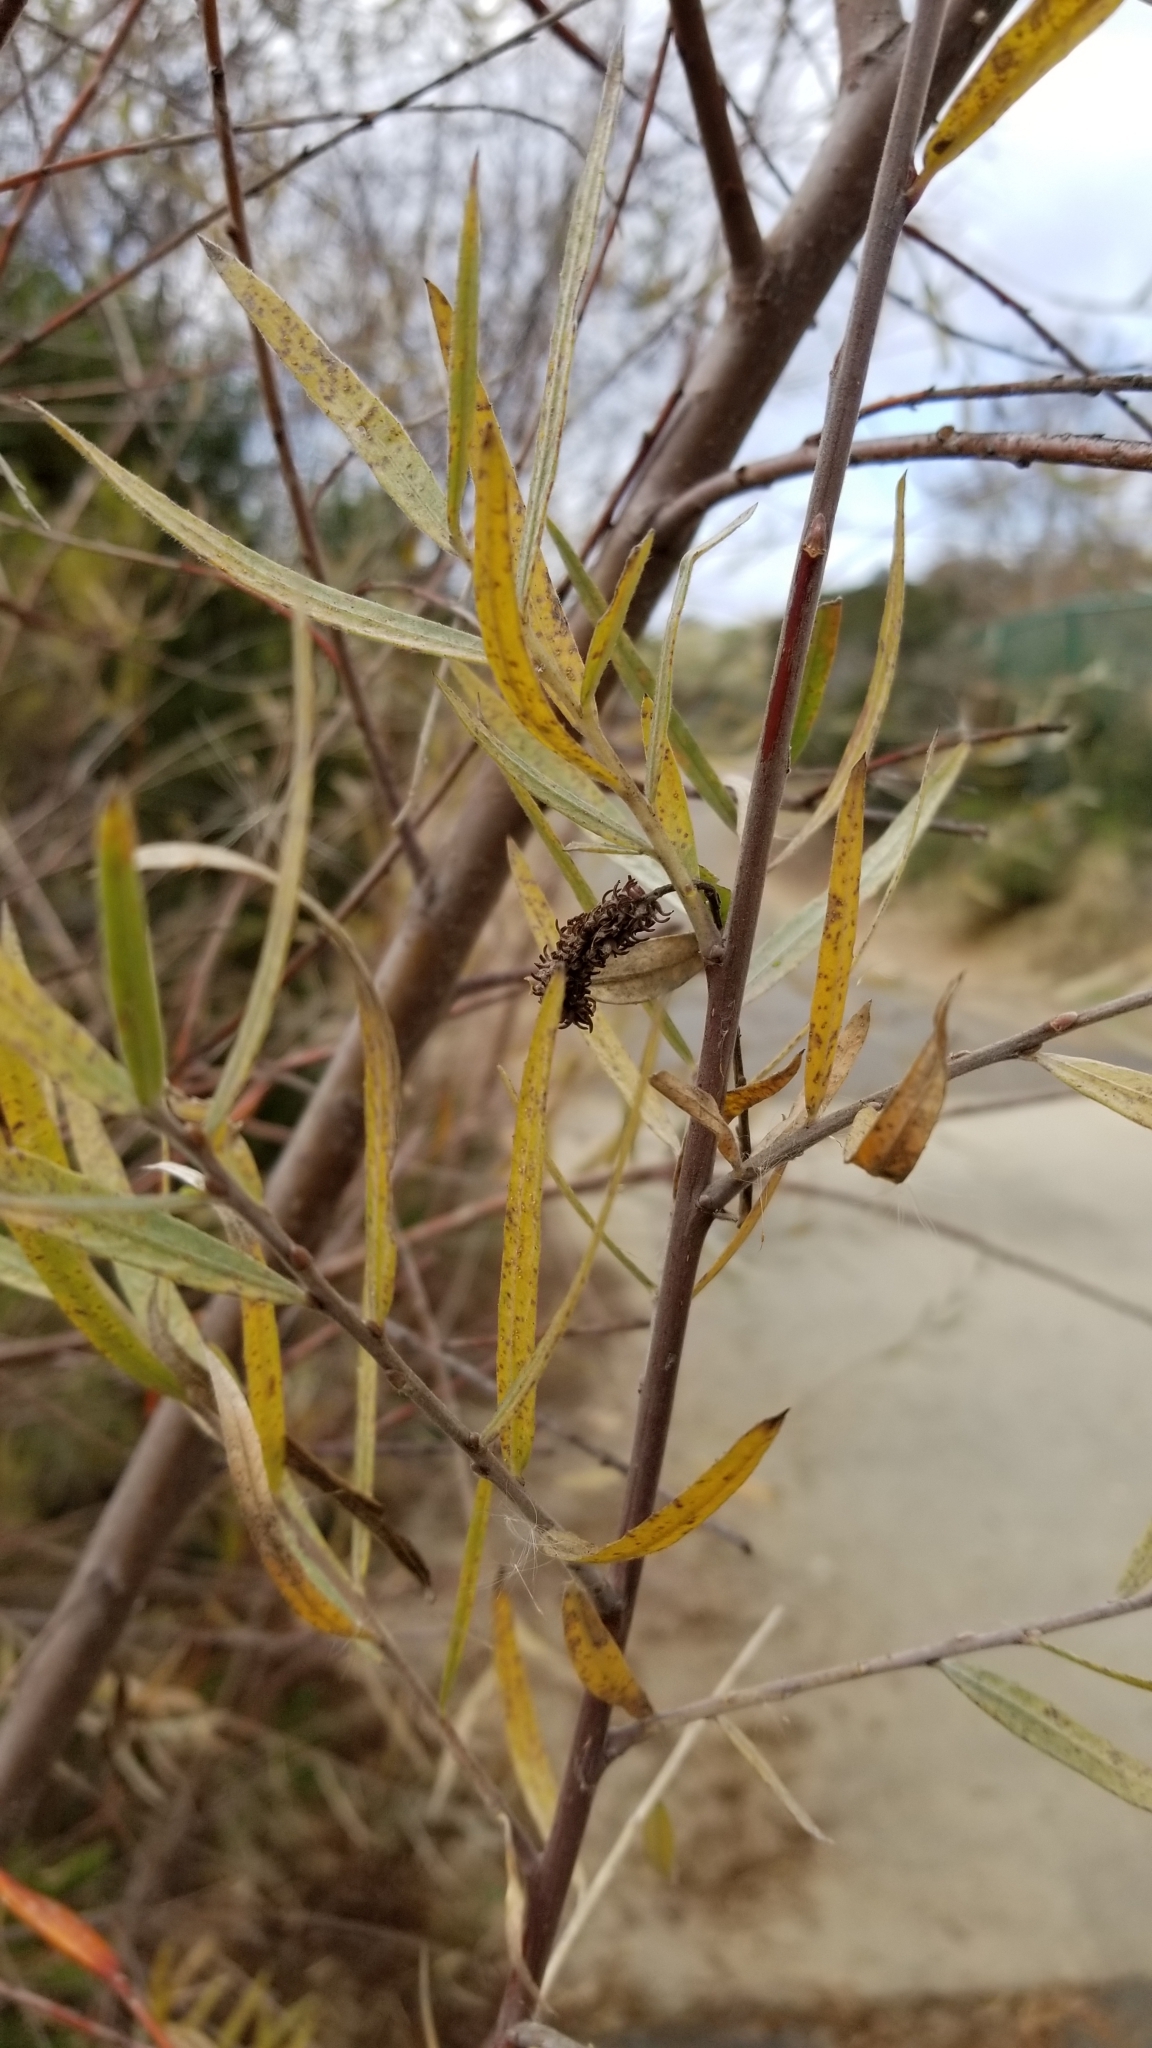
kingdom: Plantae
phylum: Tracheophyta
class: Magnoliopsida
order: Malpighiales
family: Salicaceae
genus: Salix
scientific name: Salix exigua
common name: Coyote willow
